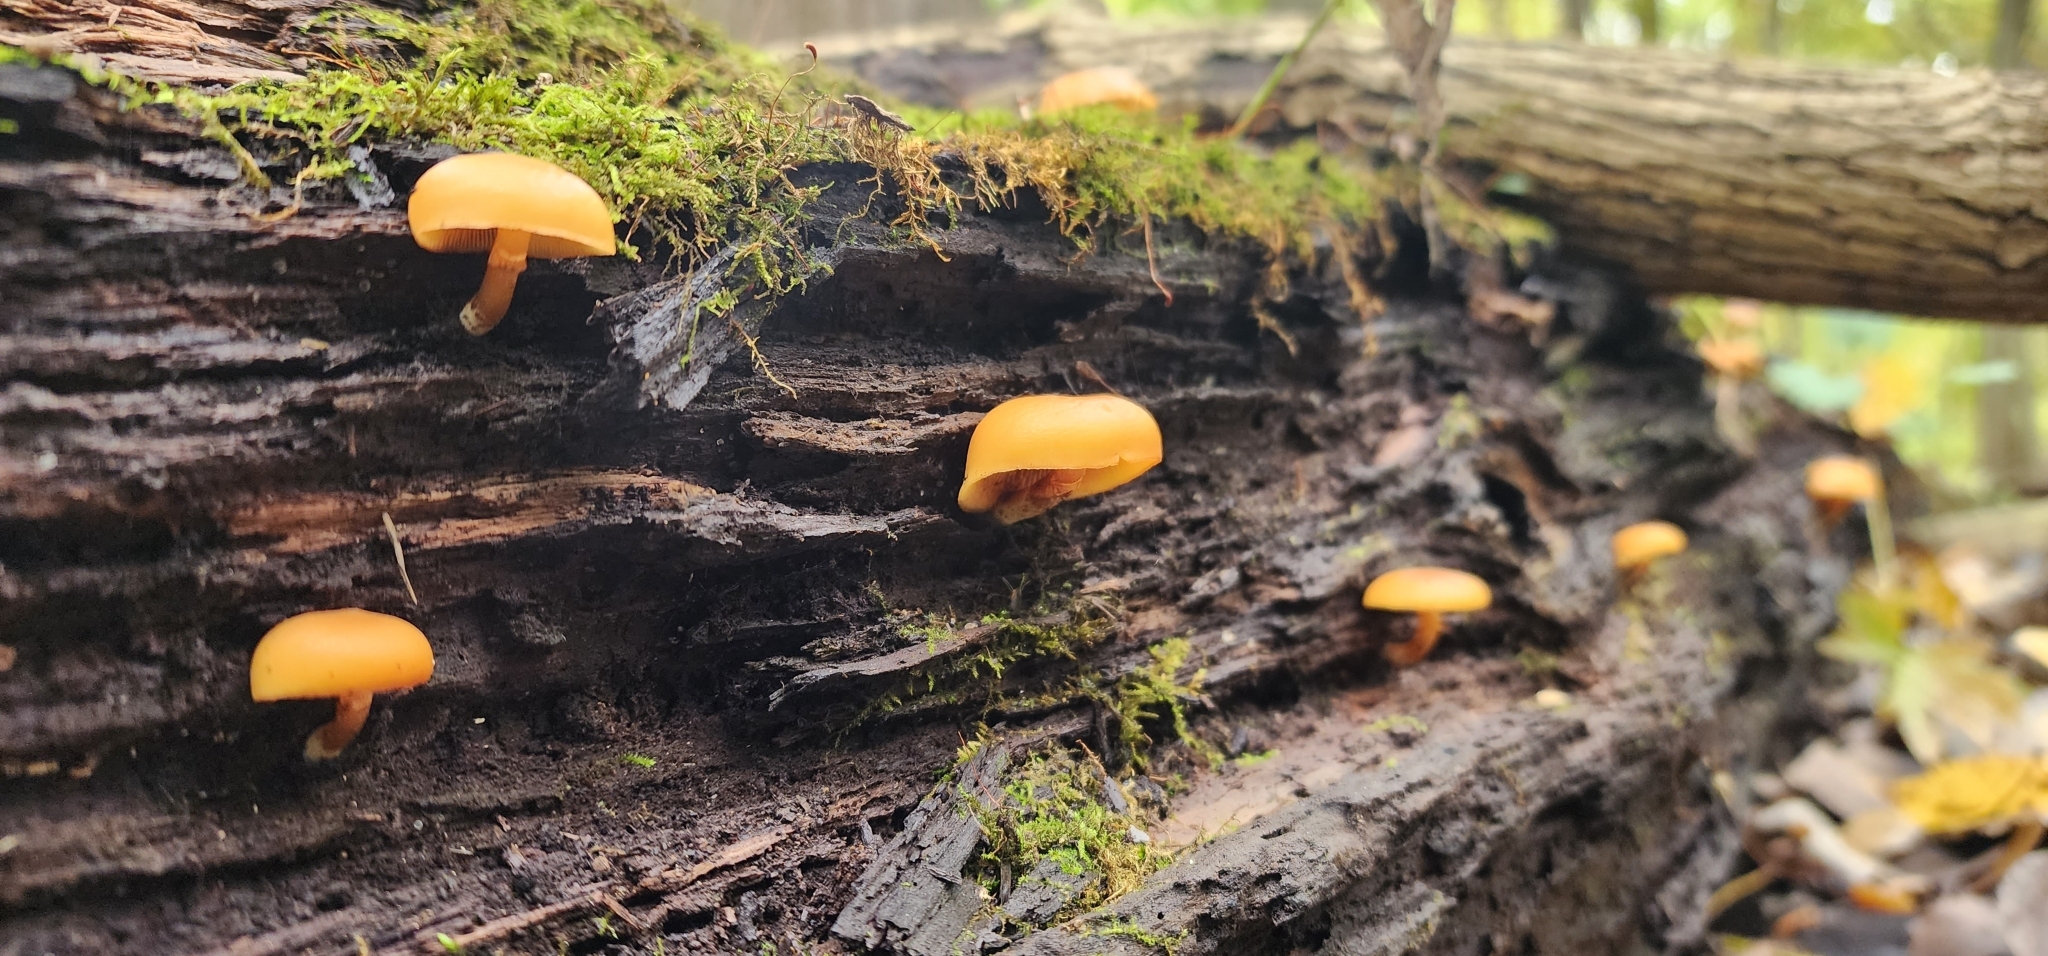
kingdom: Fungi
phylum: Basidiomycota
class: Agaricomycetes
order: Agaricales
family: Hymenogastraceae
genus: Galerina
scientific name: Galerina marginata
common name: Funeral bell
